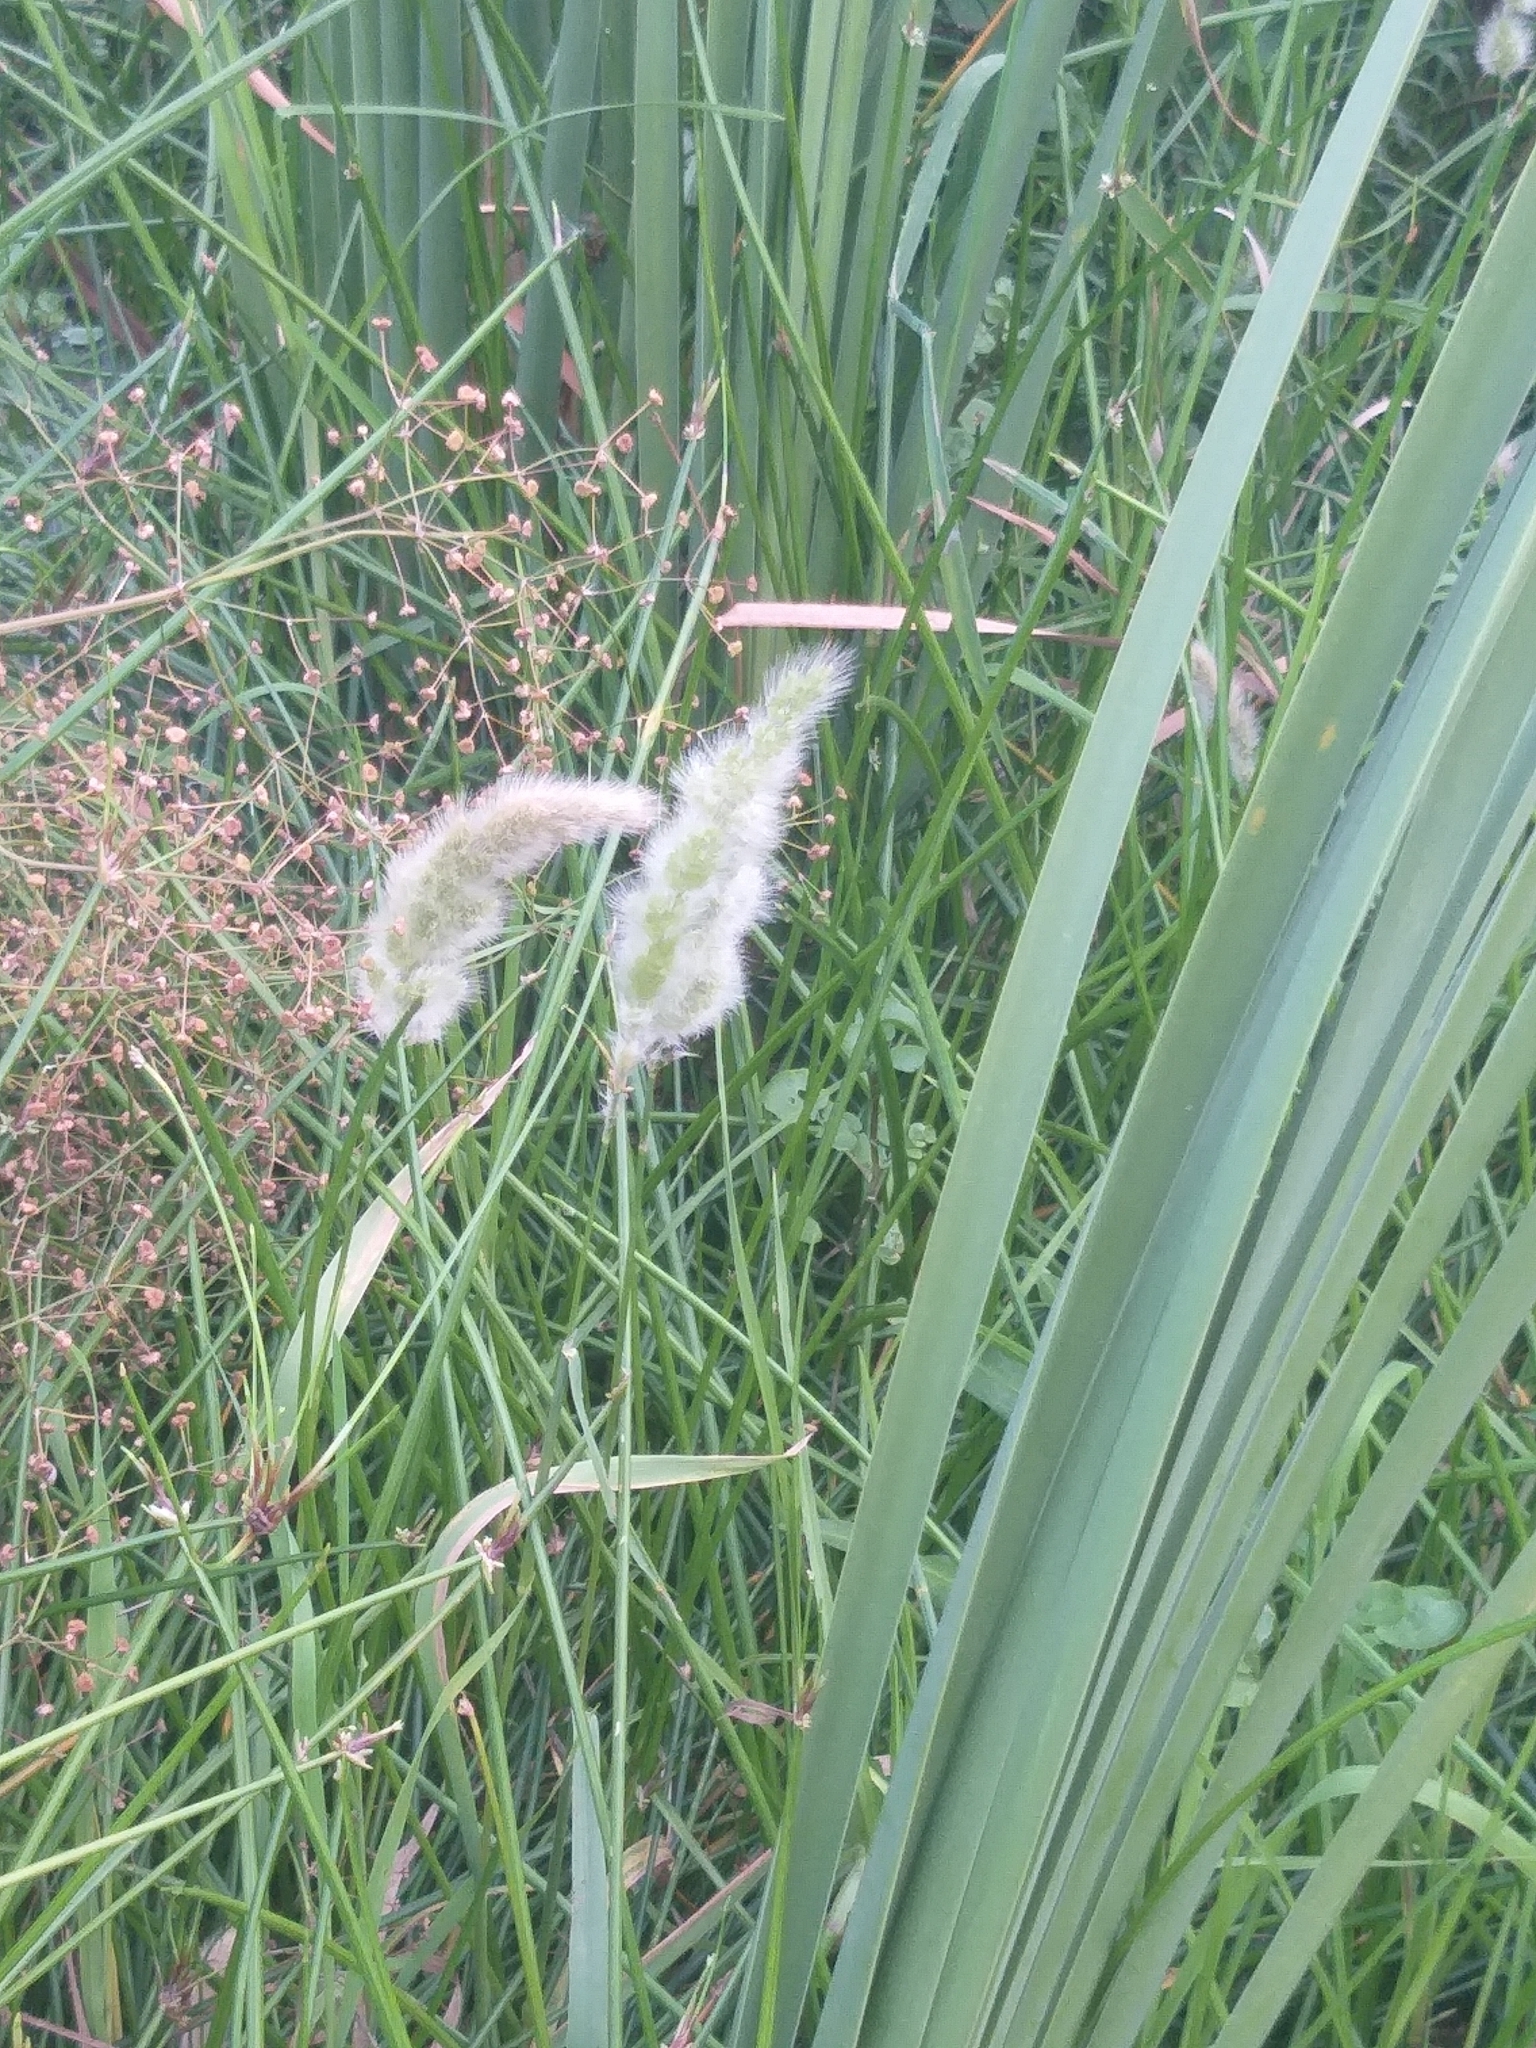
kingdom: Plantae
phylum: Tracheophyta
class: Liliopsida
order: Poales
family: Poaceae
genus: Polypogon
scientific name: Polypogon monspeliensis
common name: Annual rabbitsfoot grass
